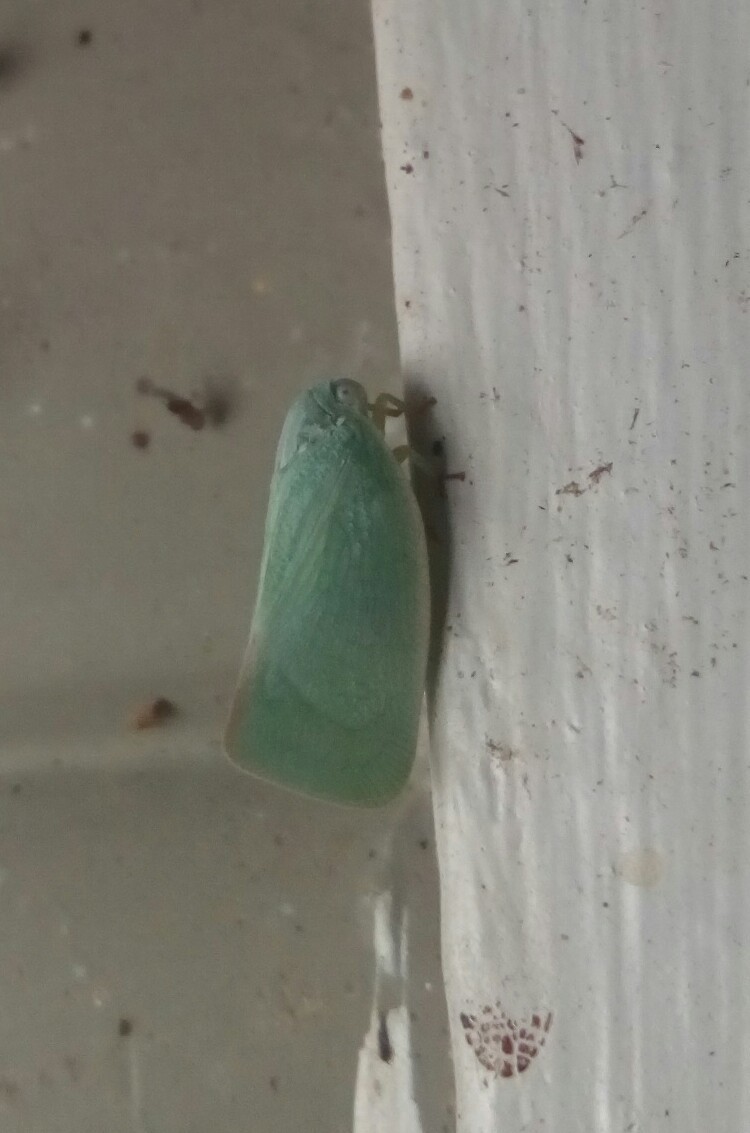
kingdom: Animalia
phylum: Arthropoda
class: Insecta
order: Hemiptera
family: Flatidae
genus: Flatormenis
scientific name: Flatormenis proxima
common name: Northern flatid planthopper
